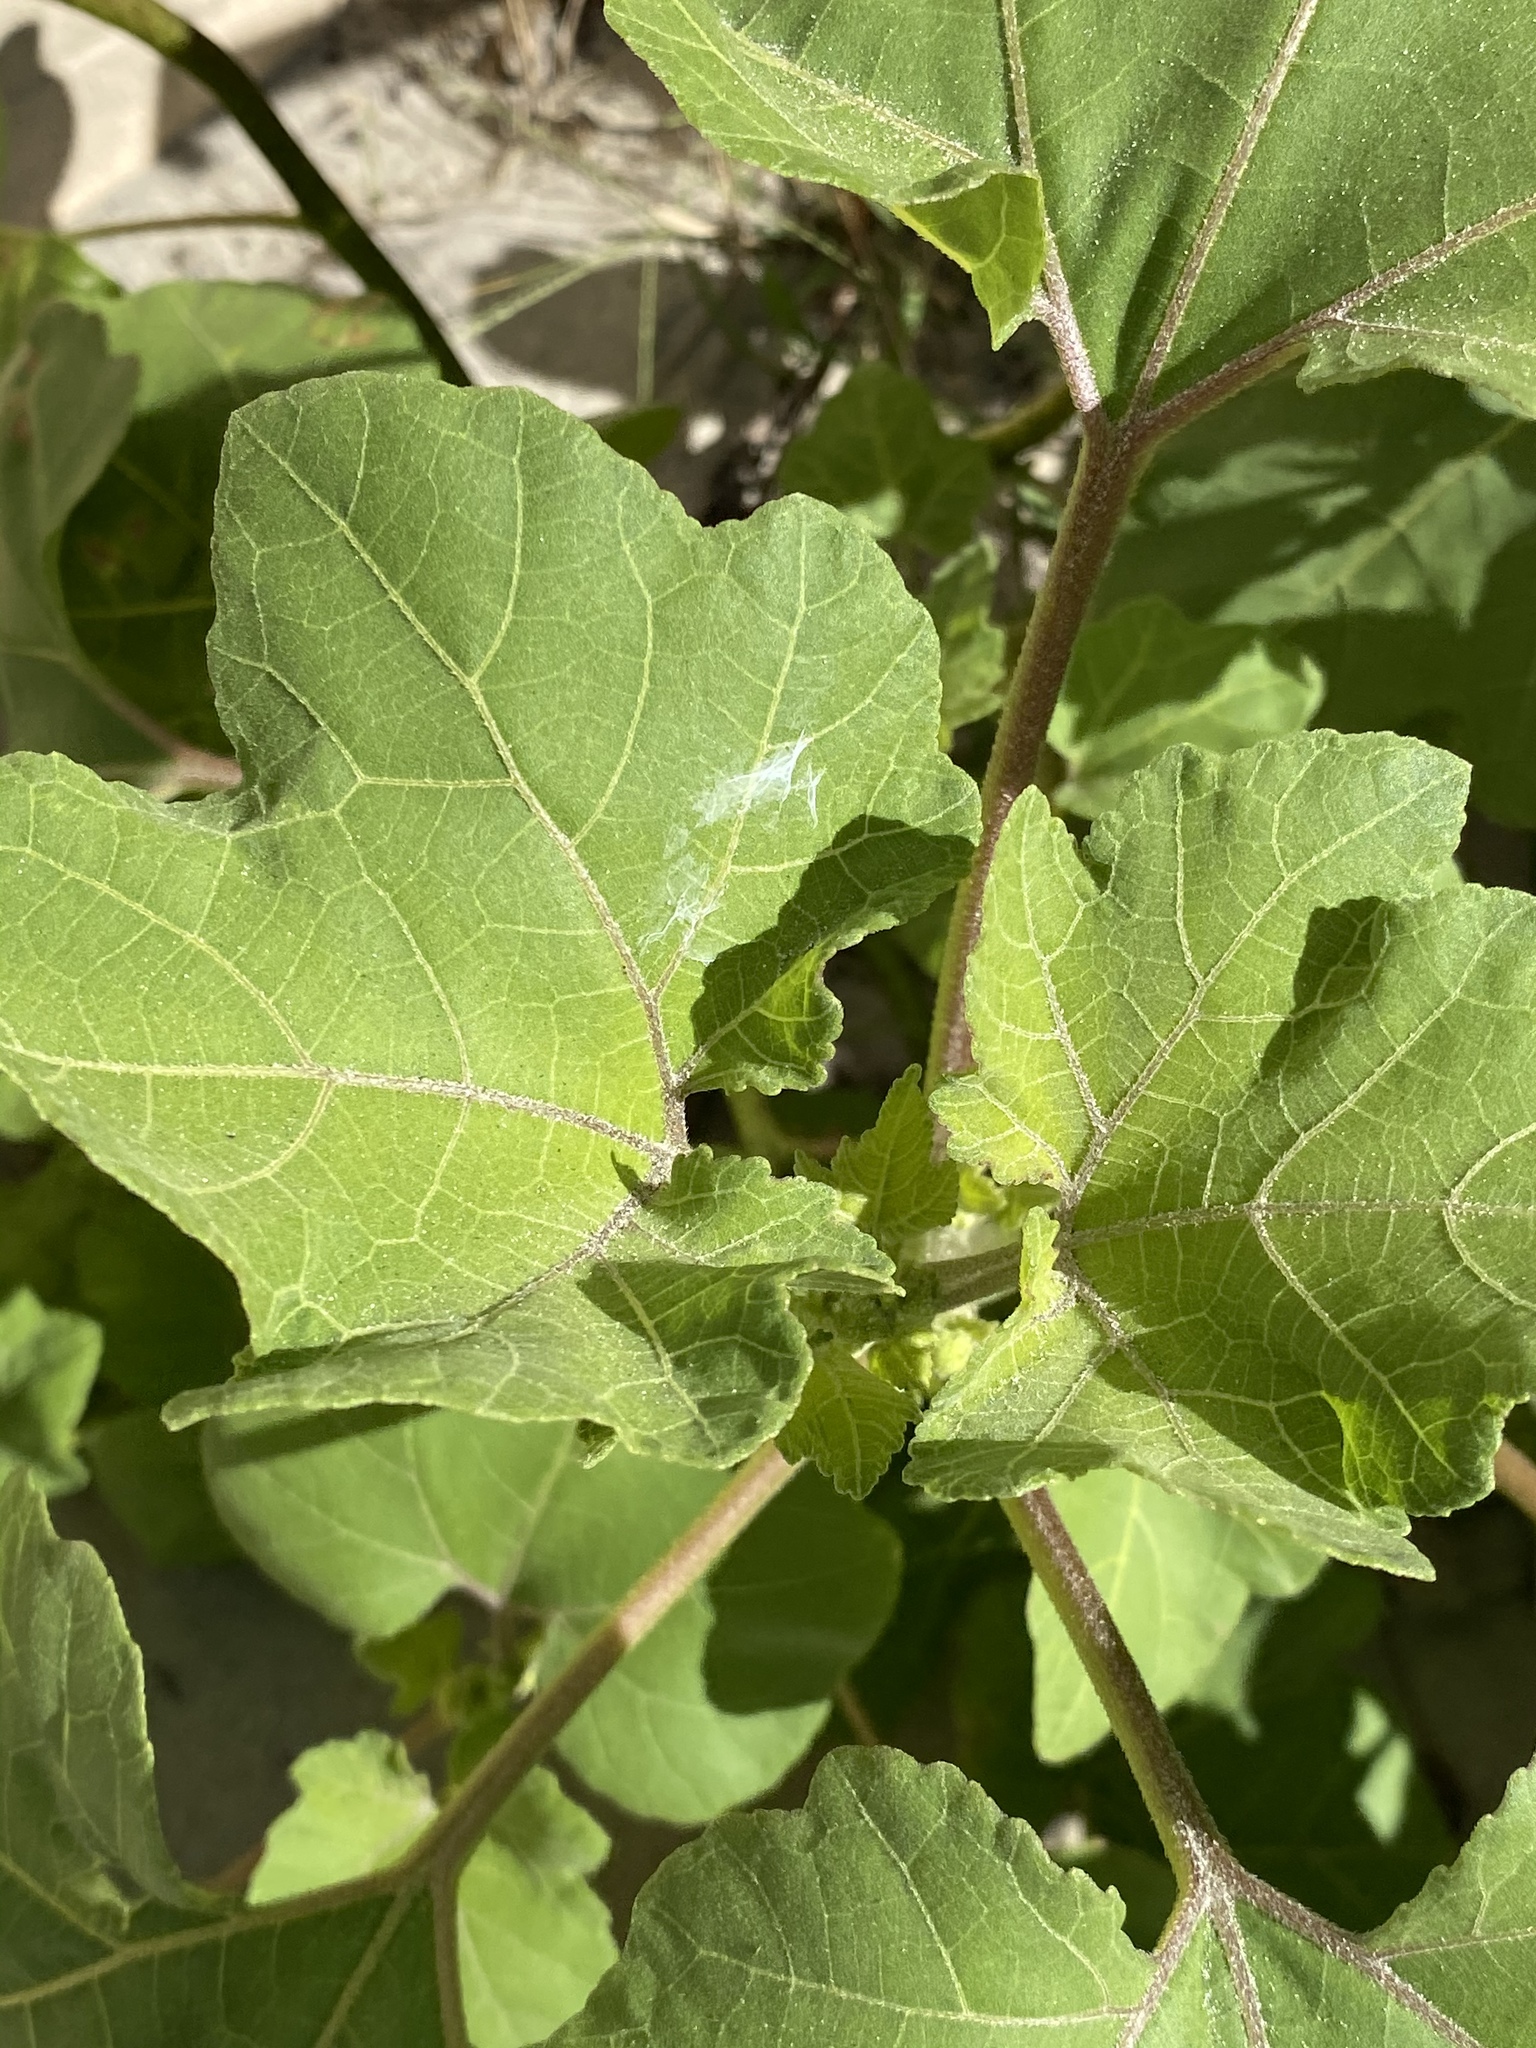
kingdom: Plantae
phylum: Tracheophyta
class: Magnoliopsida
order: Asterales
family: Asteraceae
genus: Xanthium
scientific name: Xanthium strumarium
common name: Rough cocklebur
